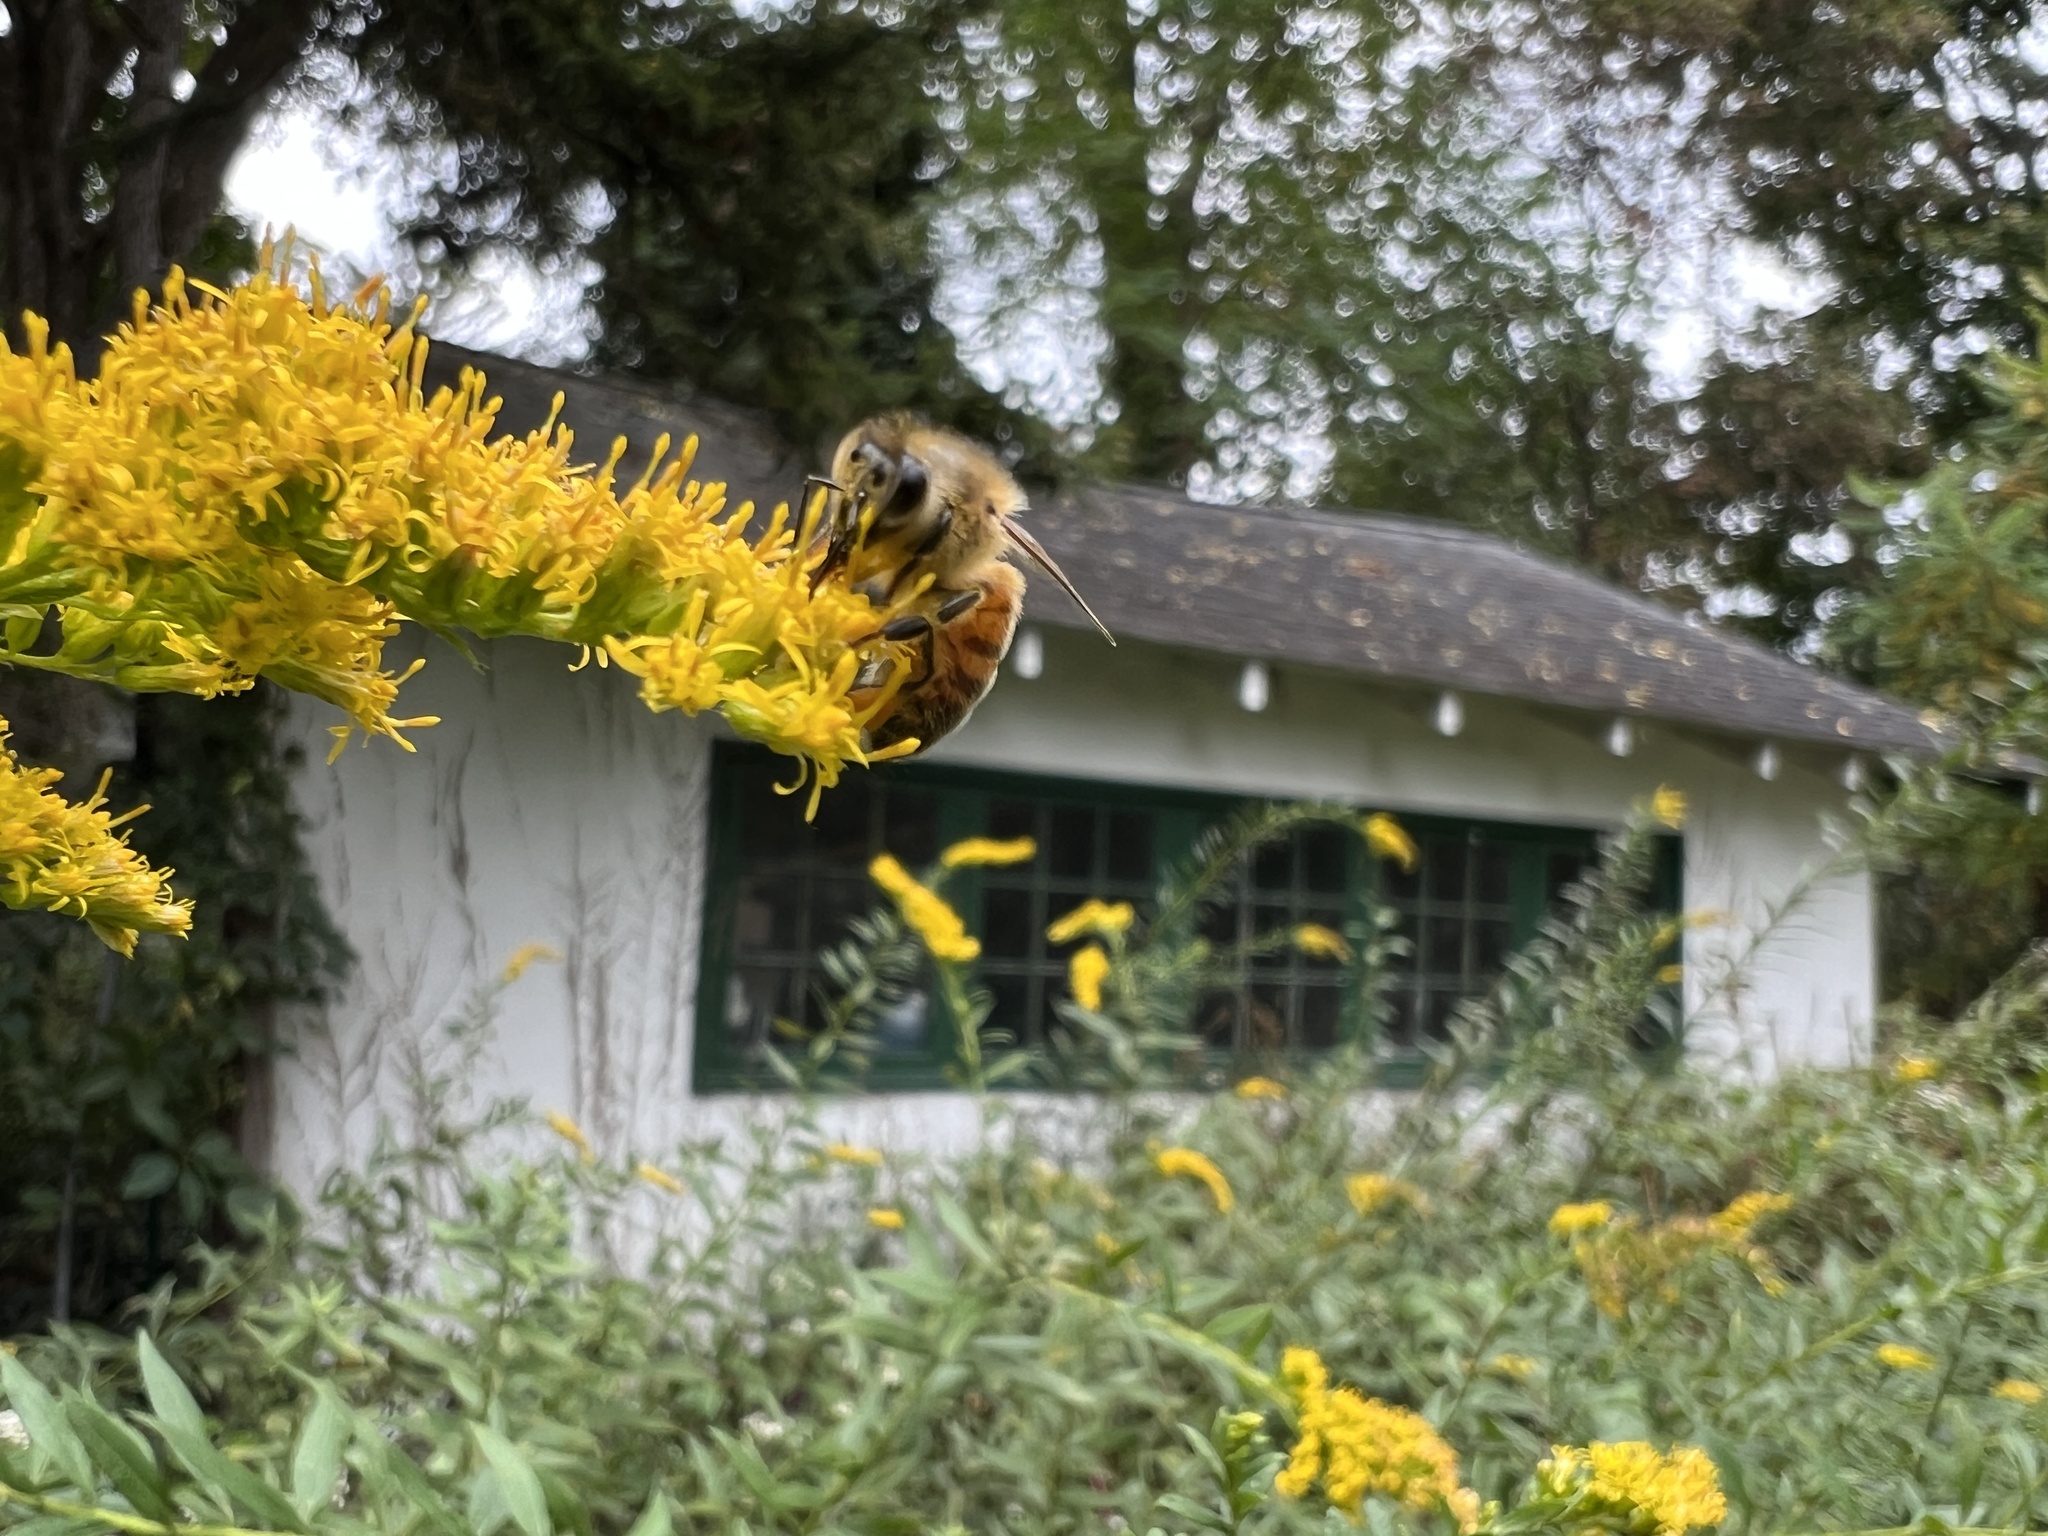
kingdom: Animalia
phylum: Arthropoda
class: Insecta
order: Hymenoptera
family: Apidae
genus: Apis
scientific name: Apis mellifera
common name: Honey bee
